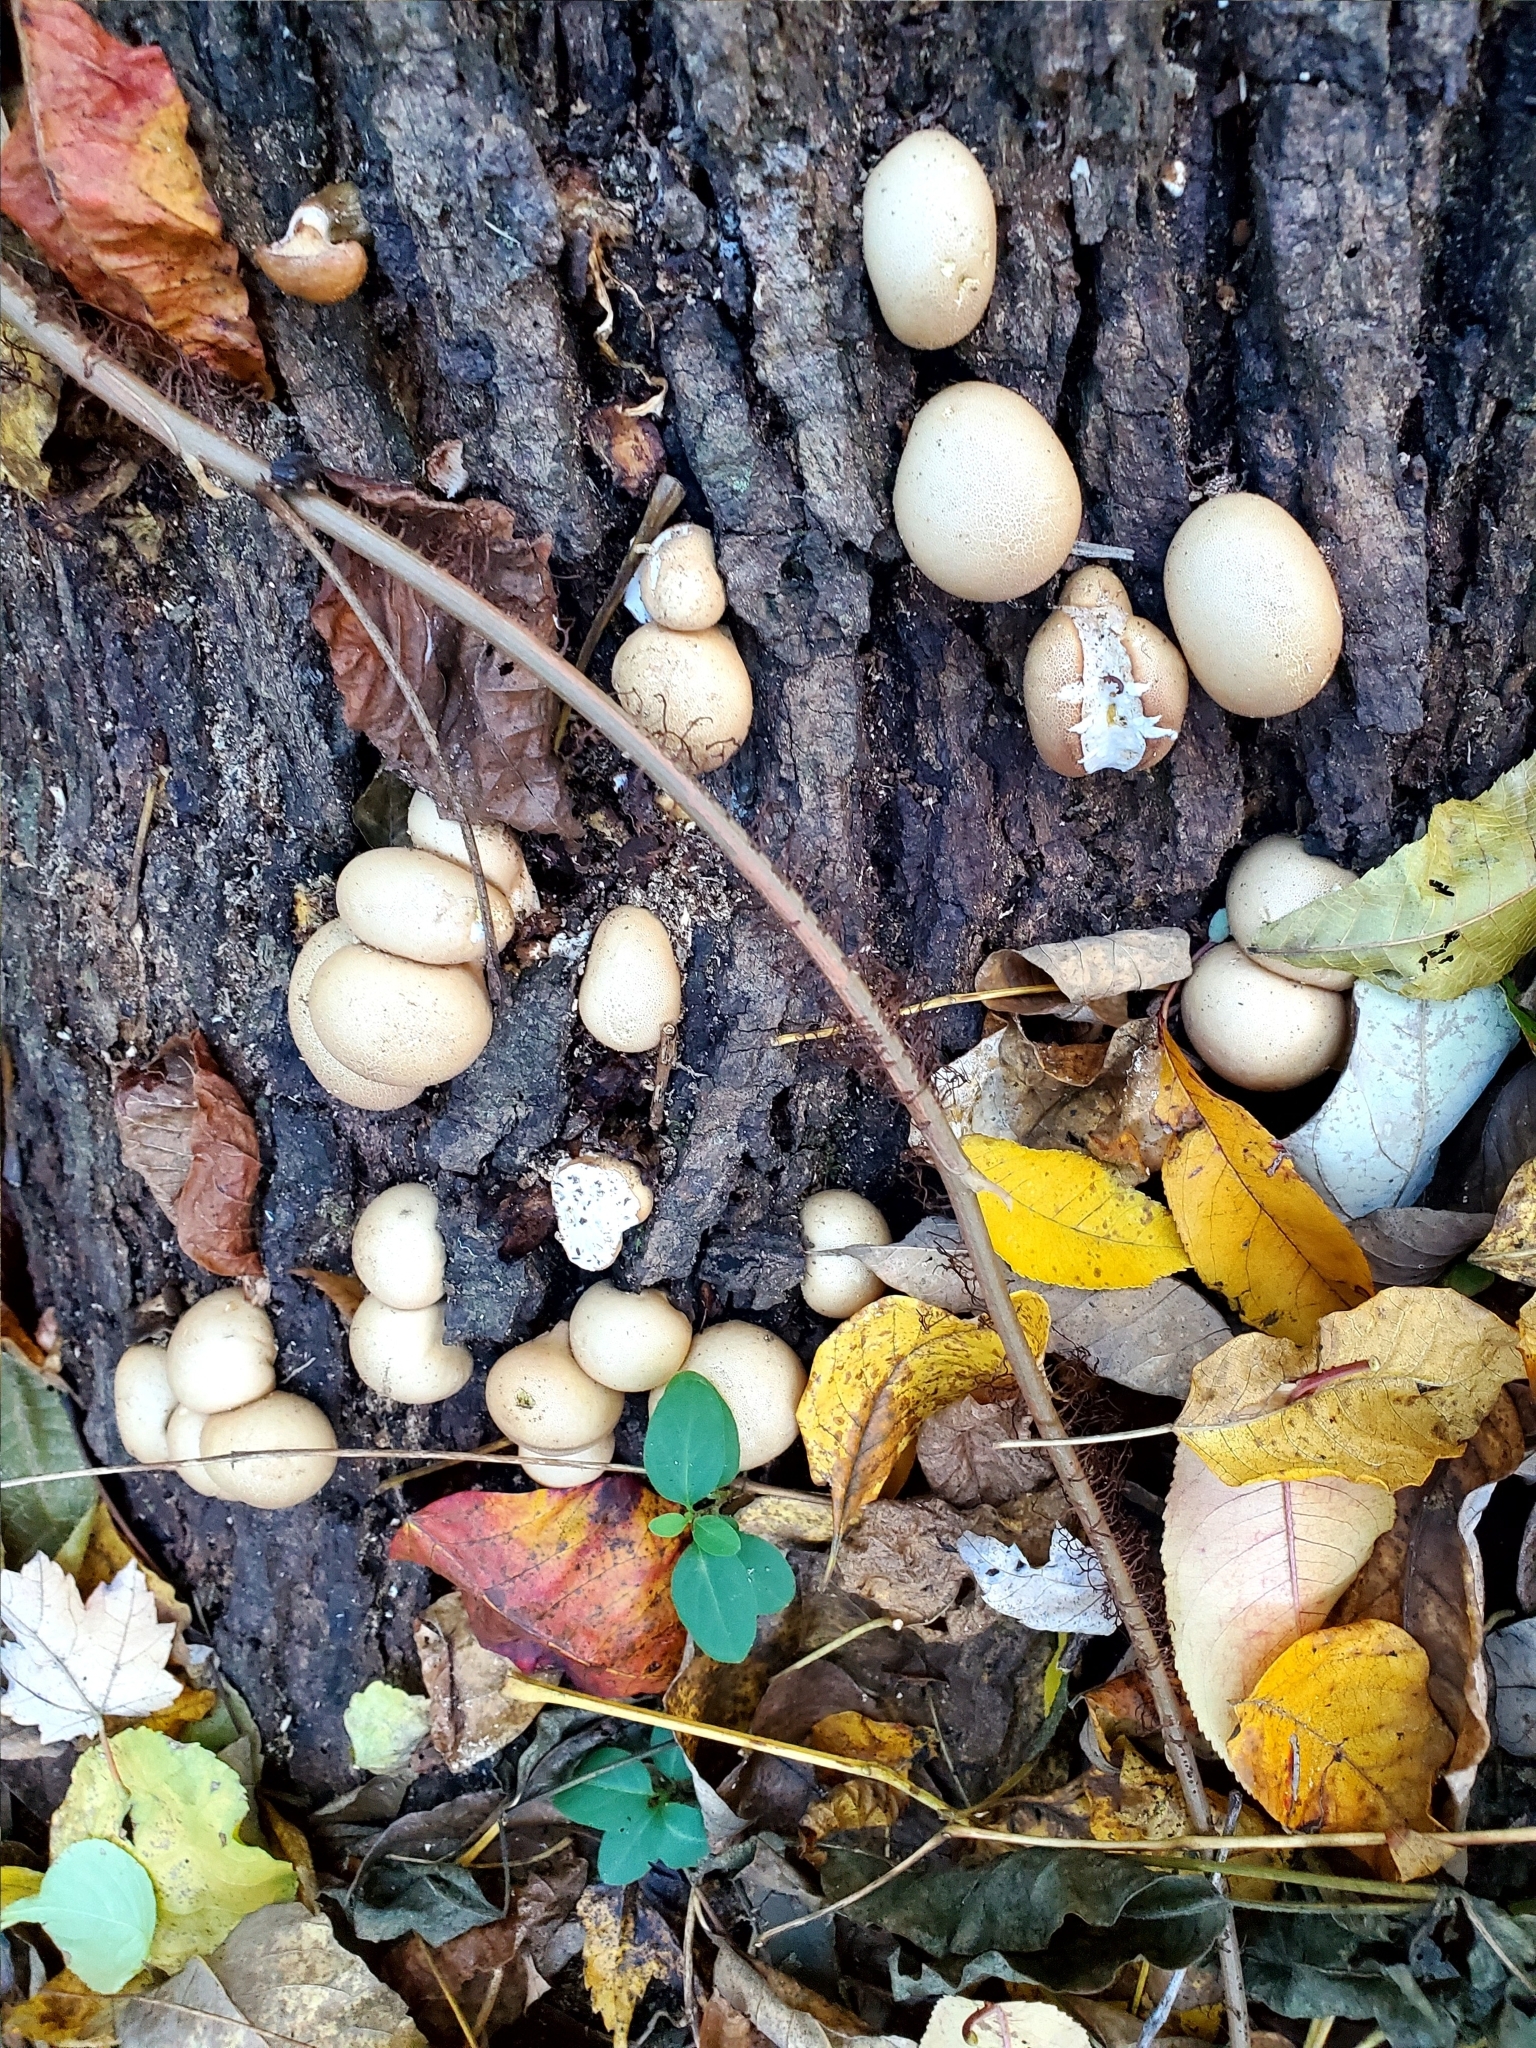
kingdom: Fungi
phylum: Basidiomycota
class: Agaricomycetes
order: Agaricales
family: Lycoperdaceae
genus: Apioperdon
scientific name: Apioperdon pyriforme
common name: Pear-shaped puffball
